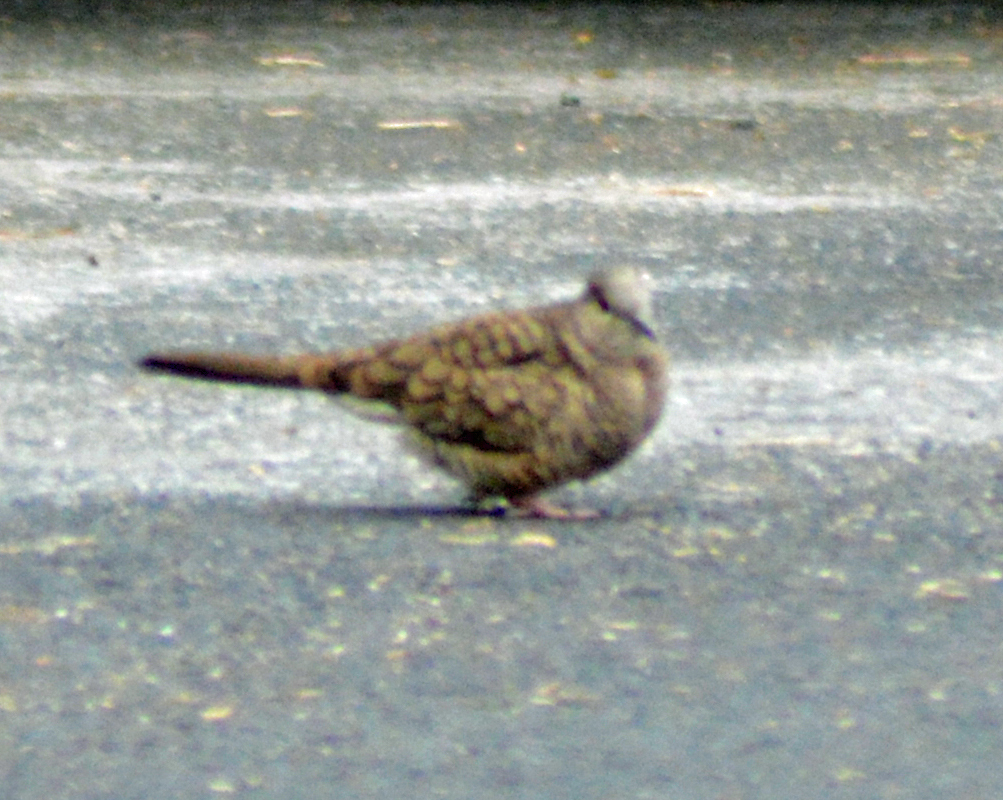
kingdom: Animalia
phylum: Chordata
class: Aves
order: Columbiformes
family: Columbidae
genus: Columbina
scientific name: Columbina inca
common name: Inca dove
